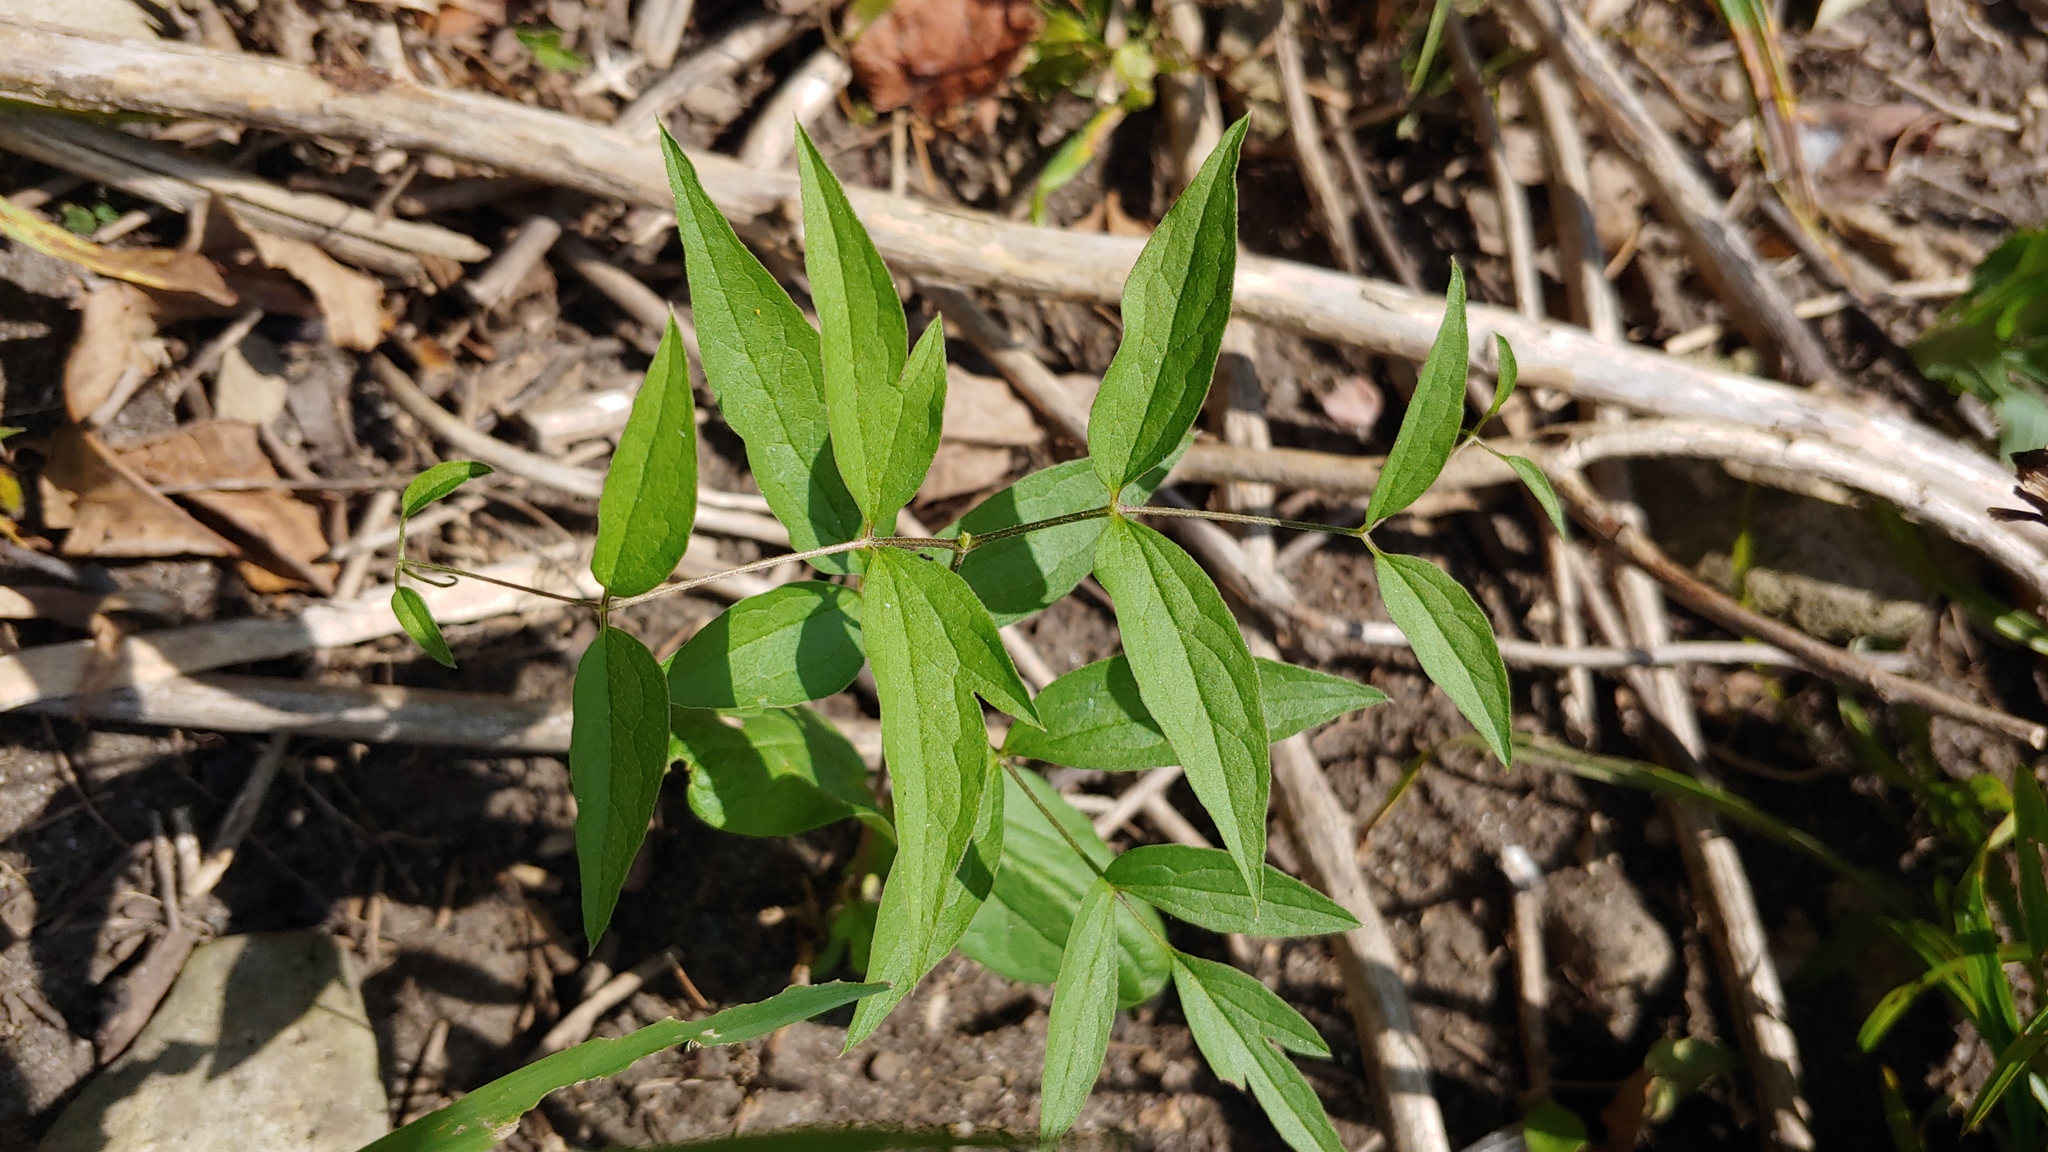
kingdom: Plantae
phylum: Tracheophyta
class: Magnoliopsida
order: Ranunculales
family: Ranunculaceae
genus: Clematis
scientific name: Clematis pitcheri
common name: Bellflower clematis
